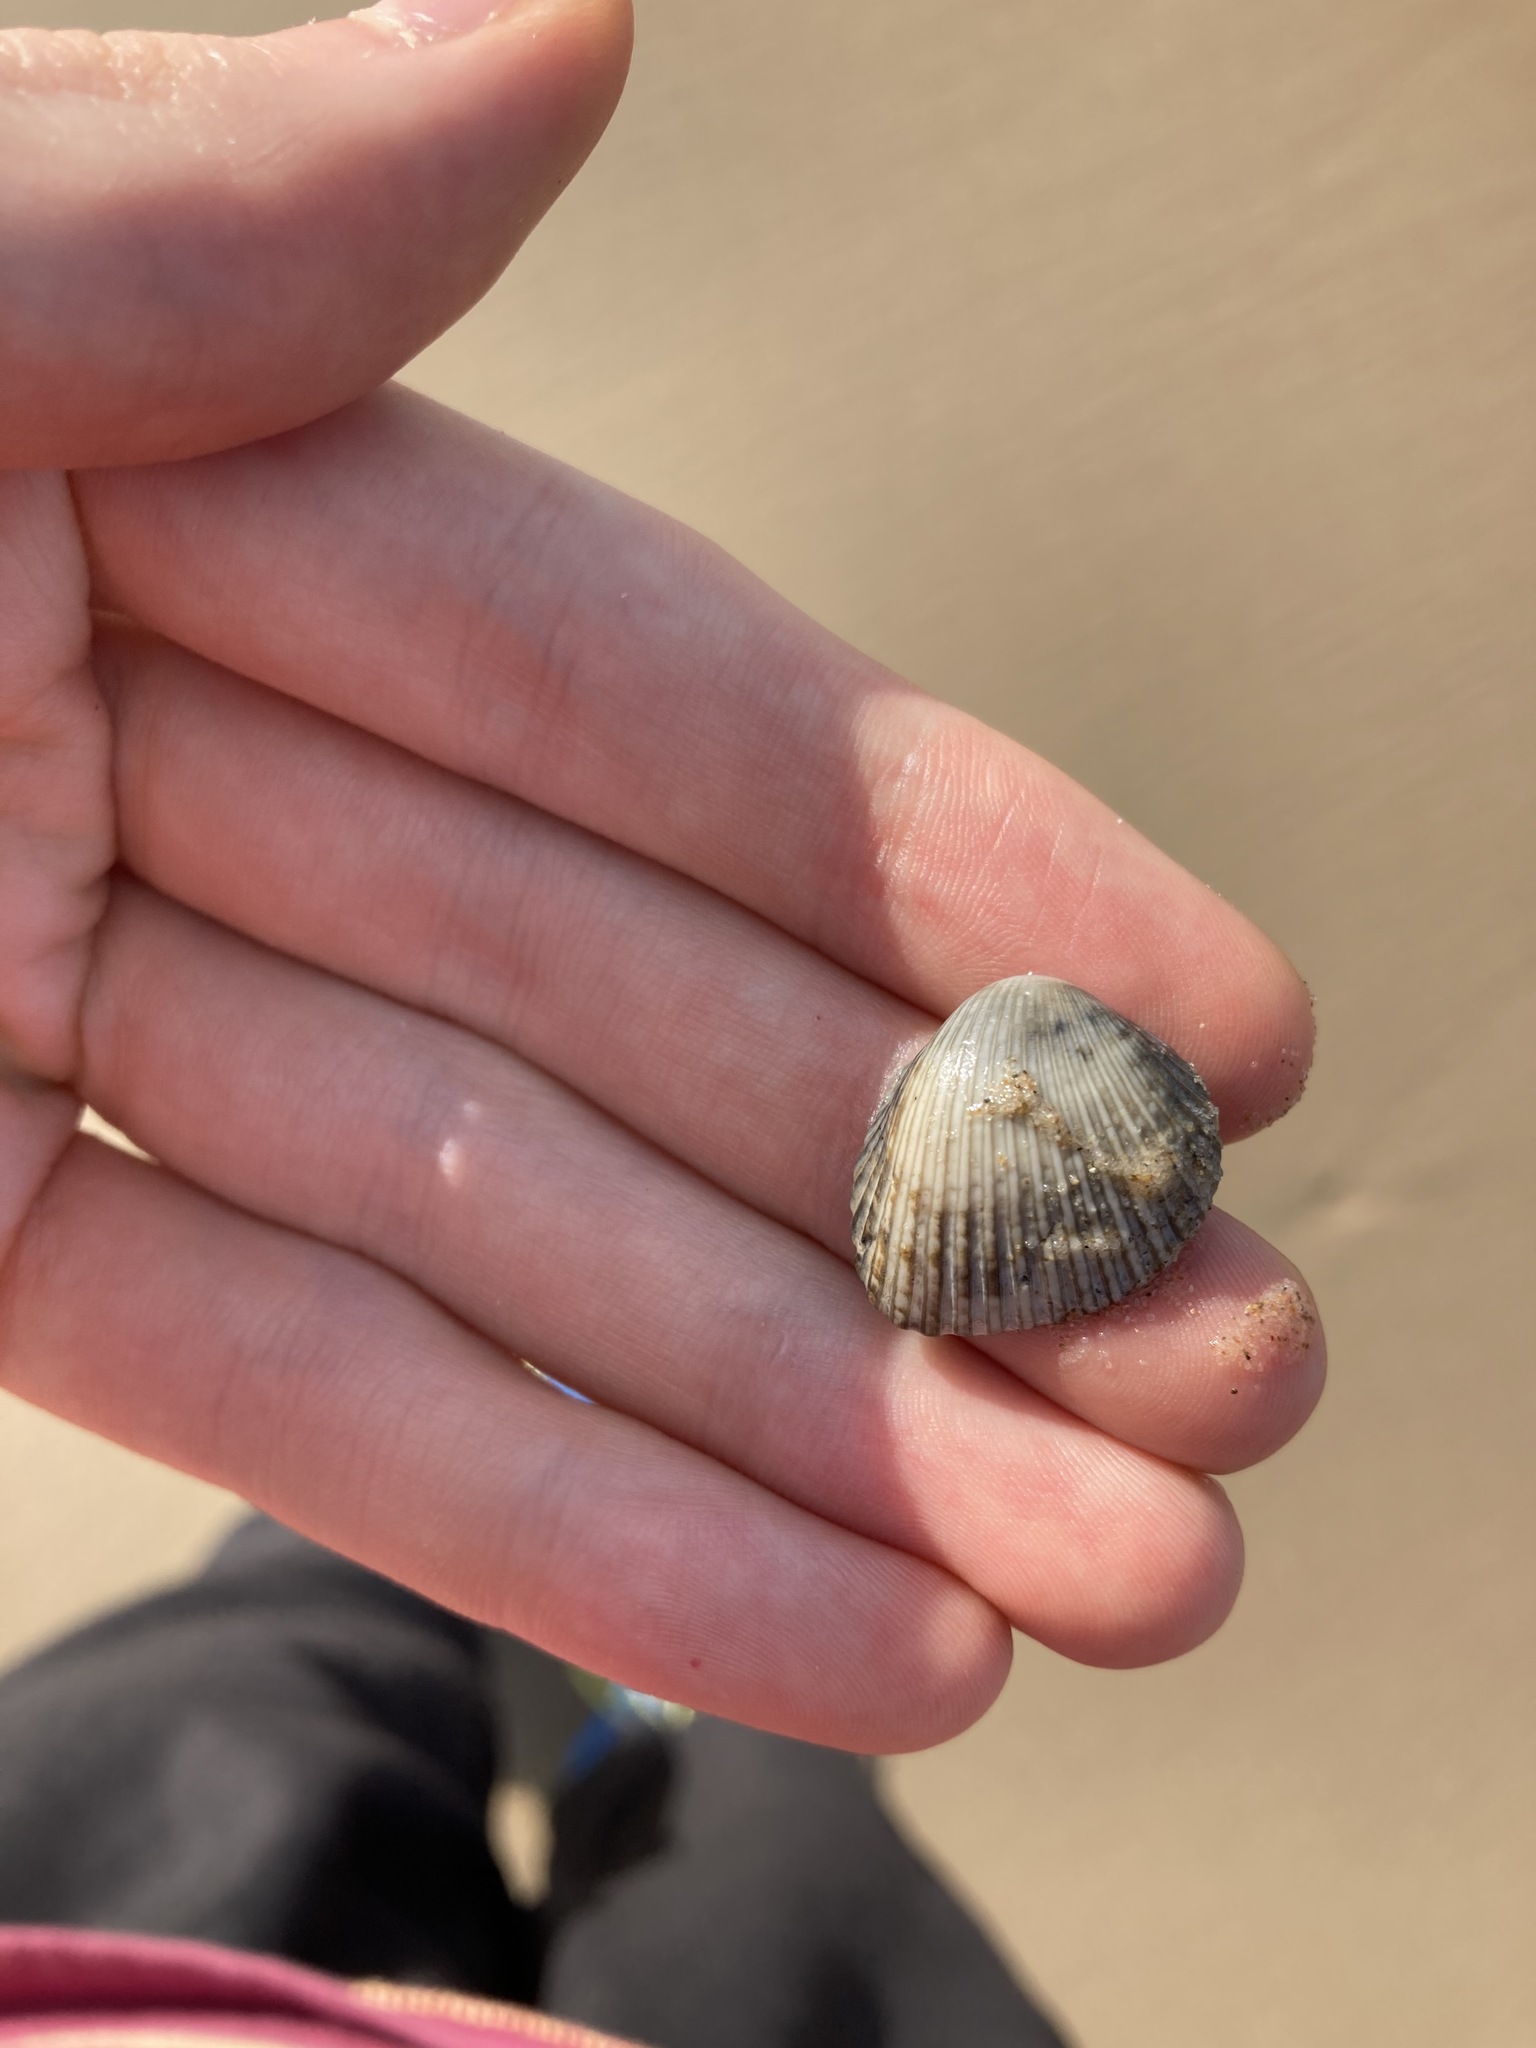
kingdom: Animalia
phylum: Mollusca
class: Bivalvia
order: Arcida
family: Arcidae
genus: Anadara
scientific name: Anadara trapezia
